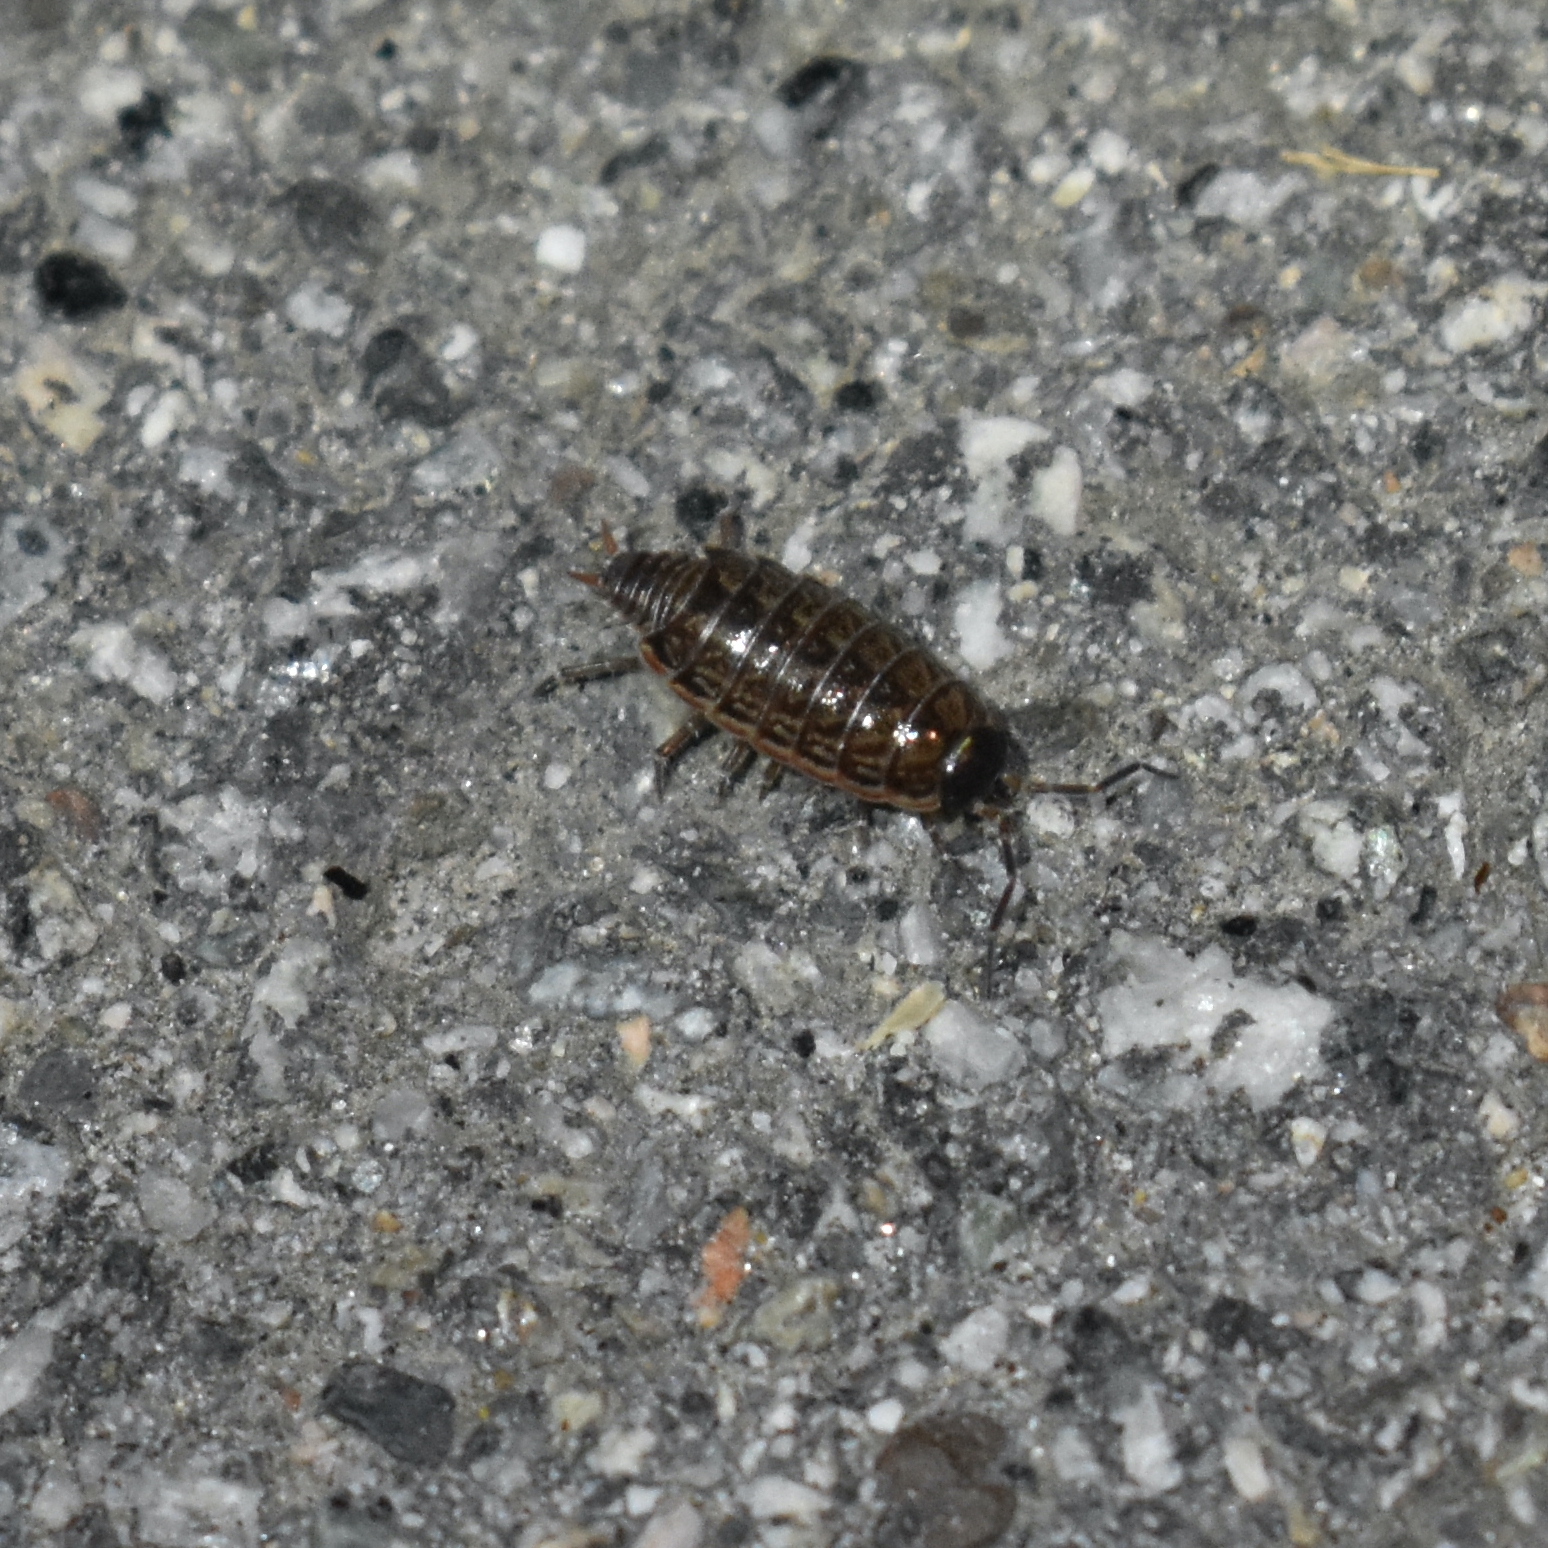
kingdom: Animalia
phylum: Arthropoda
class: Malacostraca
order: Isopoda
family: Philosciidae
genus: Philoscia
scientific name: Philoscia muscorum
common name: Common striped woodlouse
